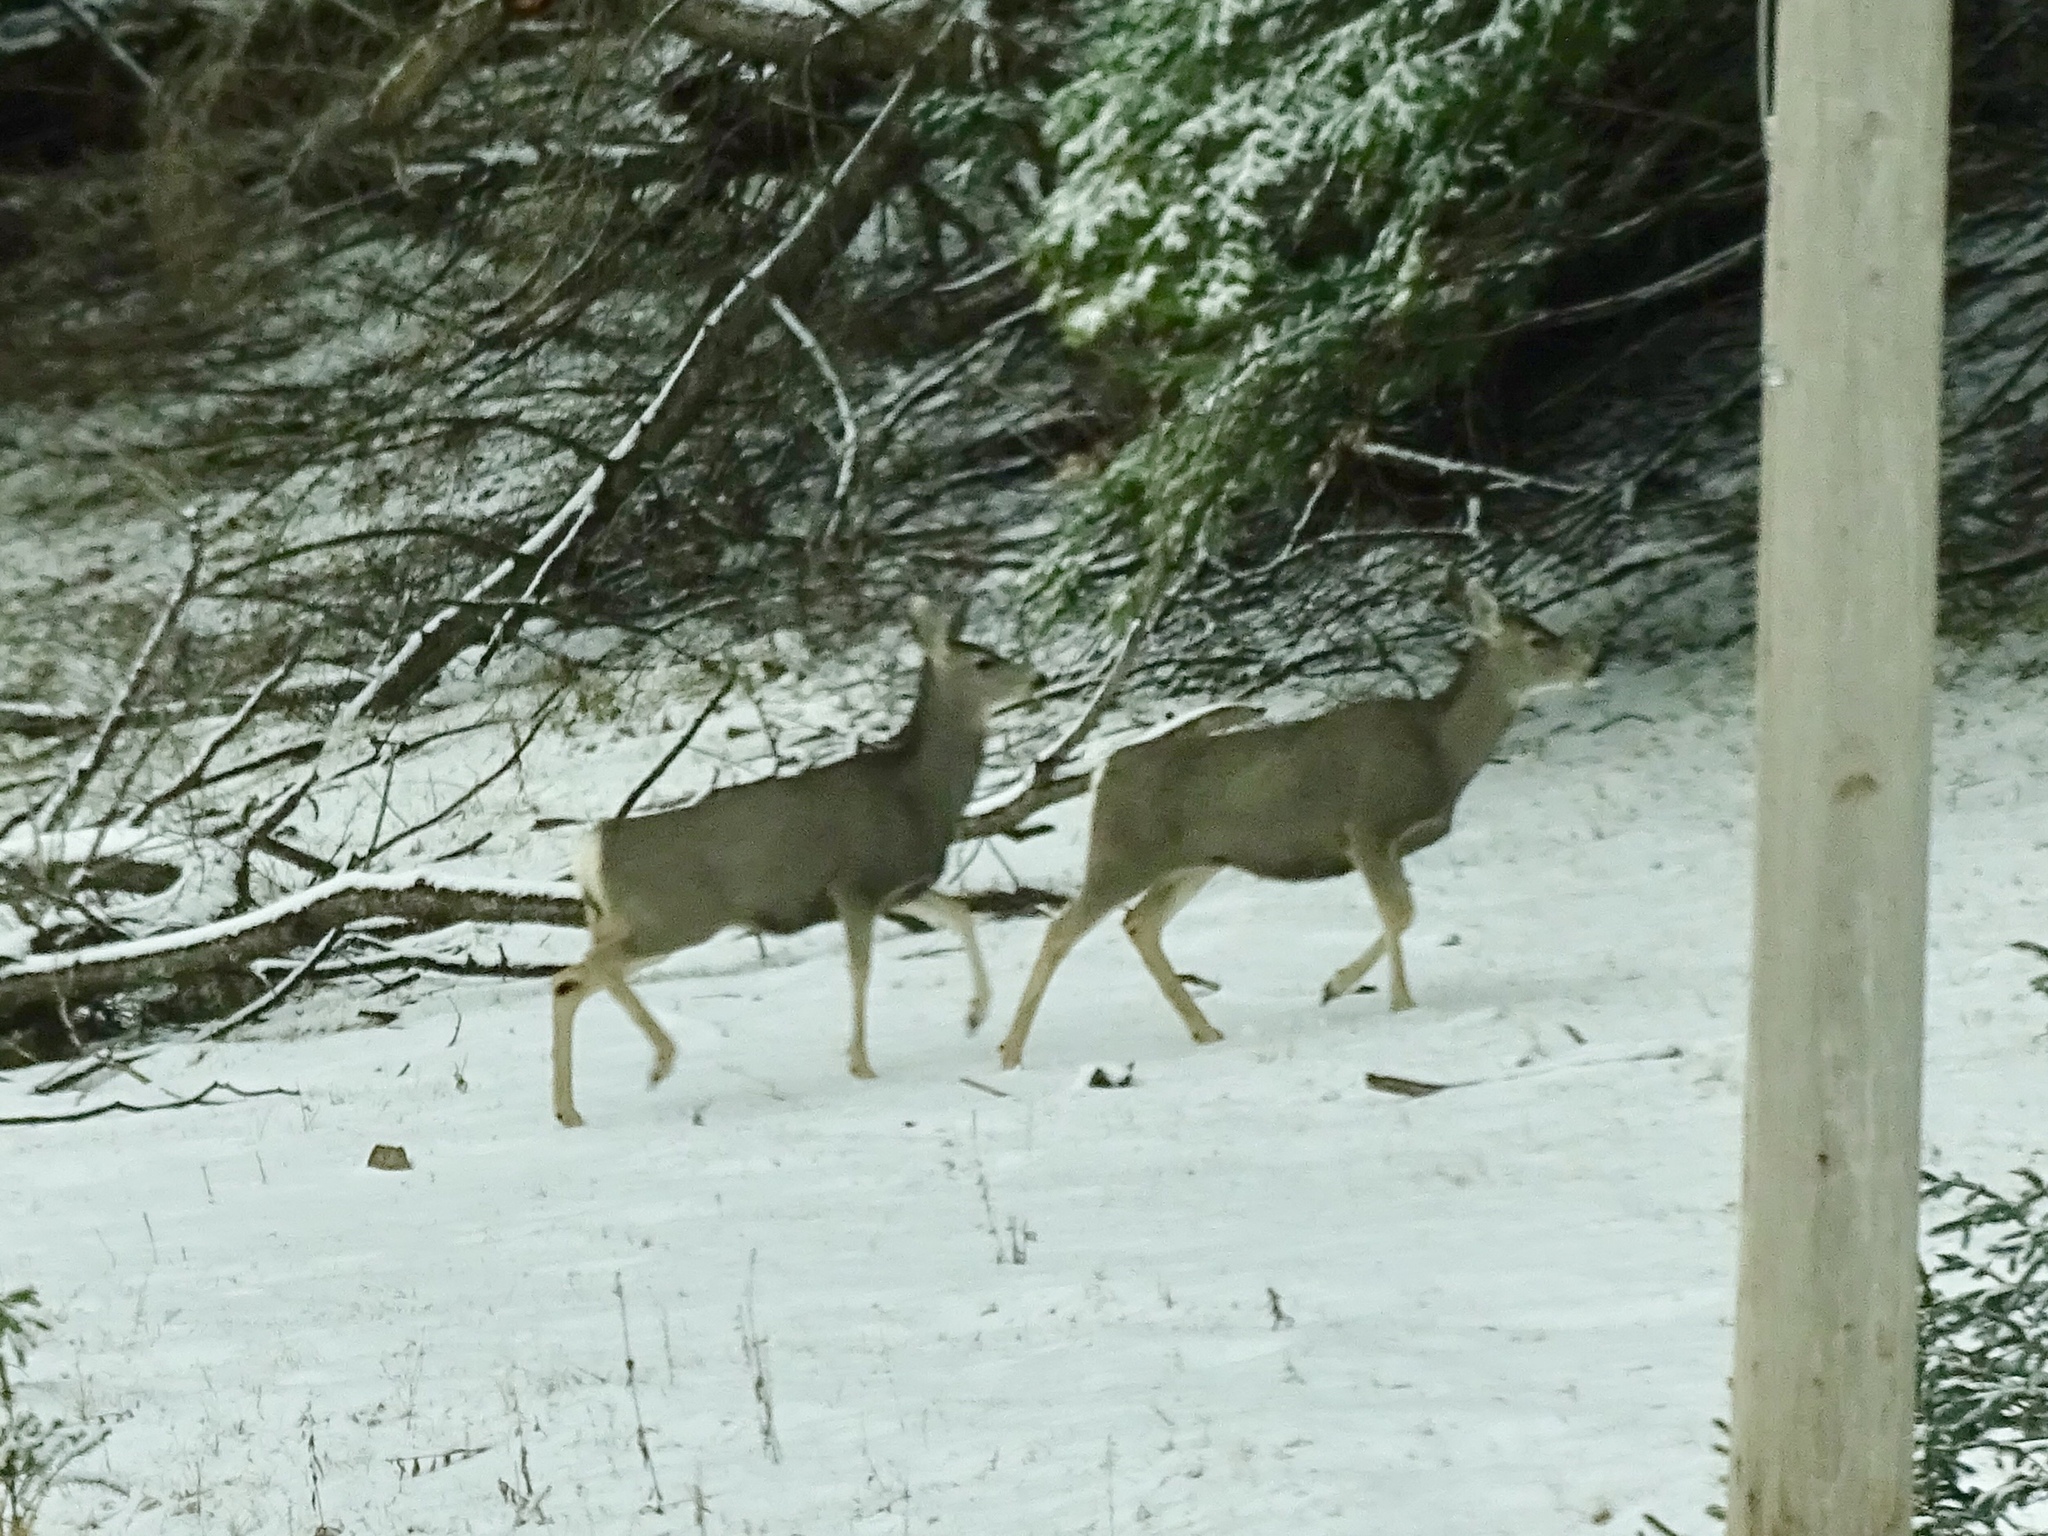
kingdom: Animalia
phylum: Chordata
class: Mammalia
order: Artiodactyla
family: Cervidae
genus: Odocoileus
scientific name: Odocoileus hemionus
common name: Mule deer
